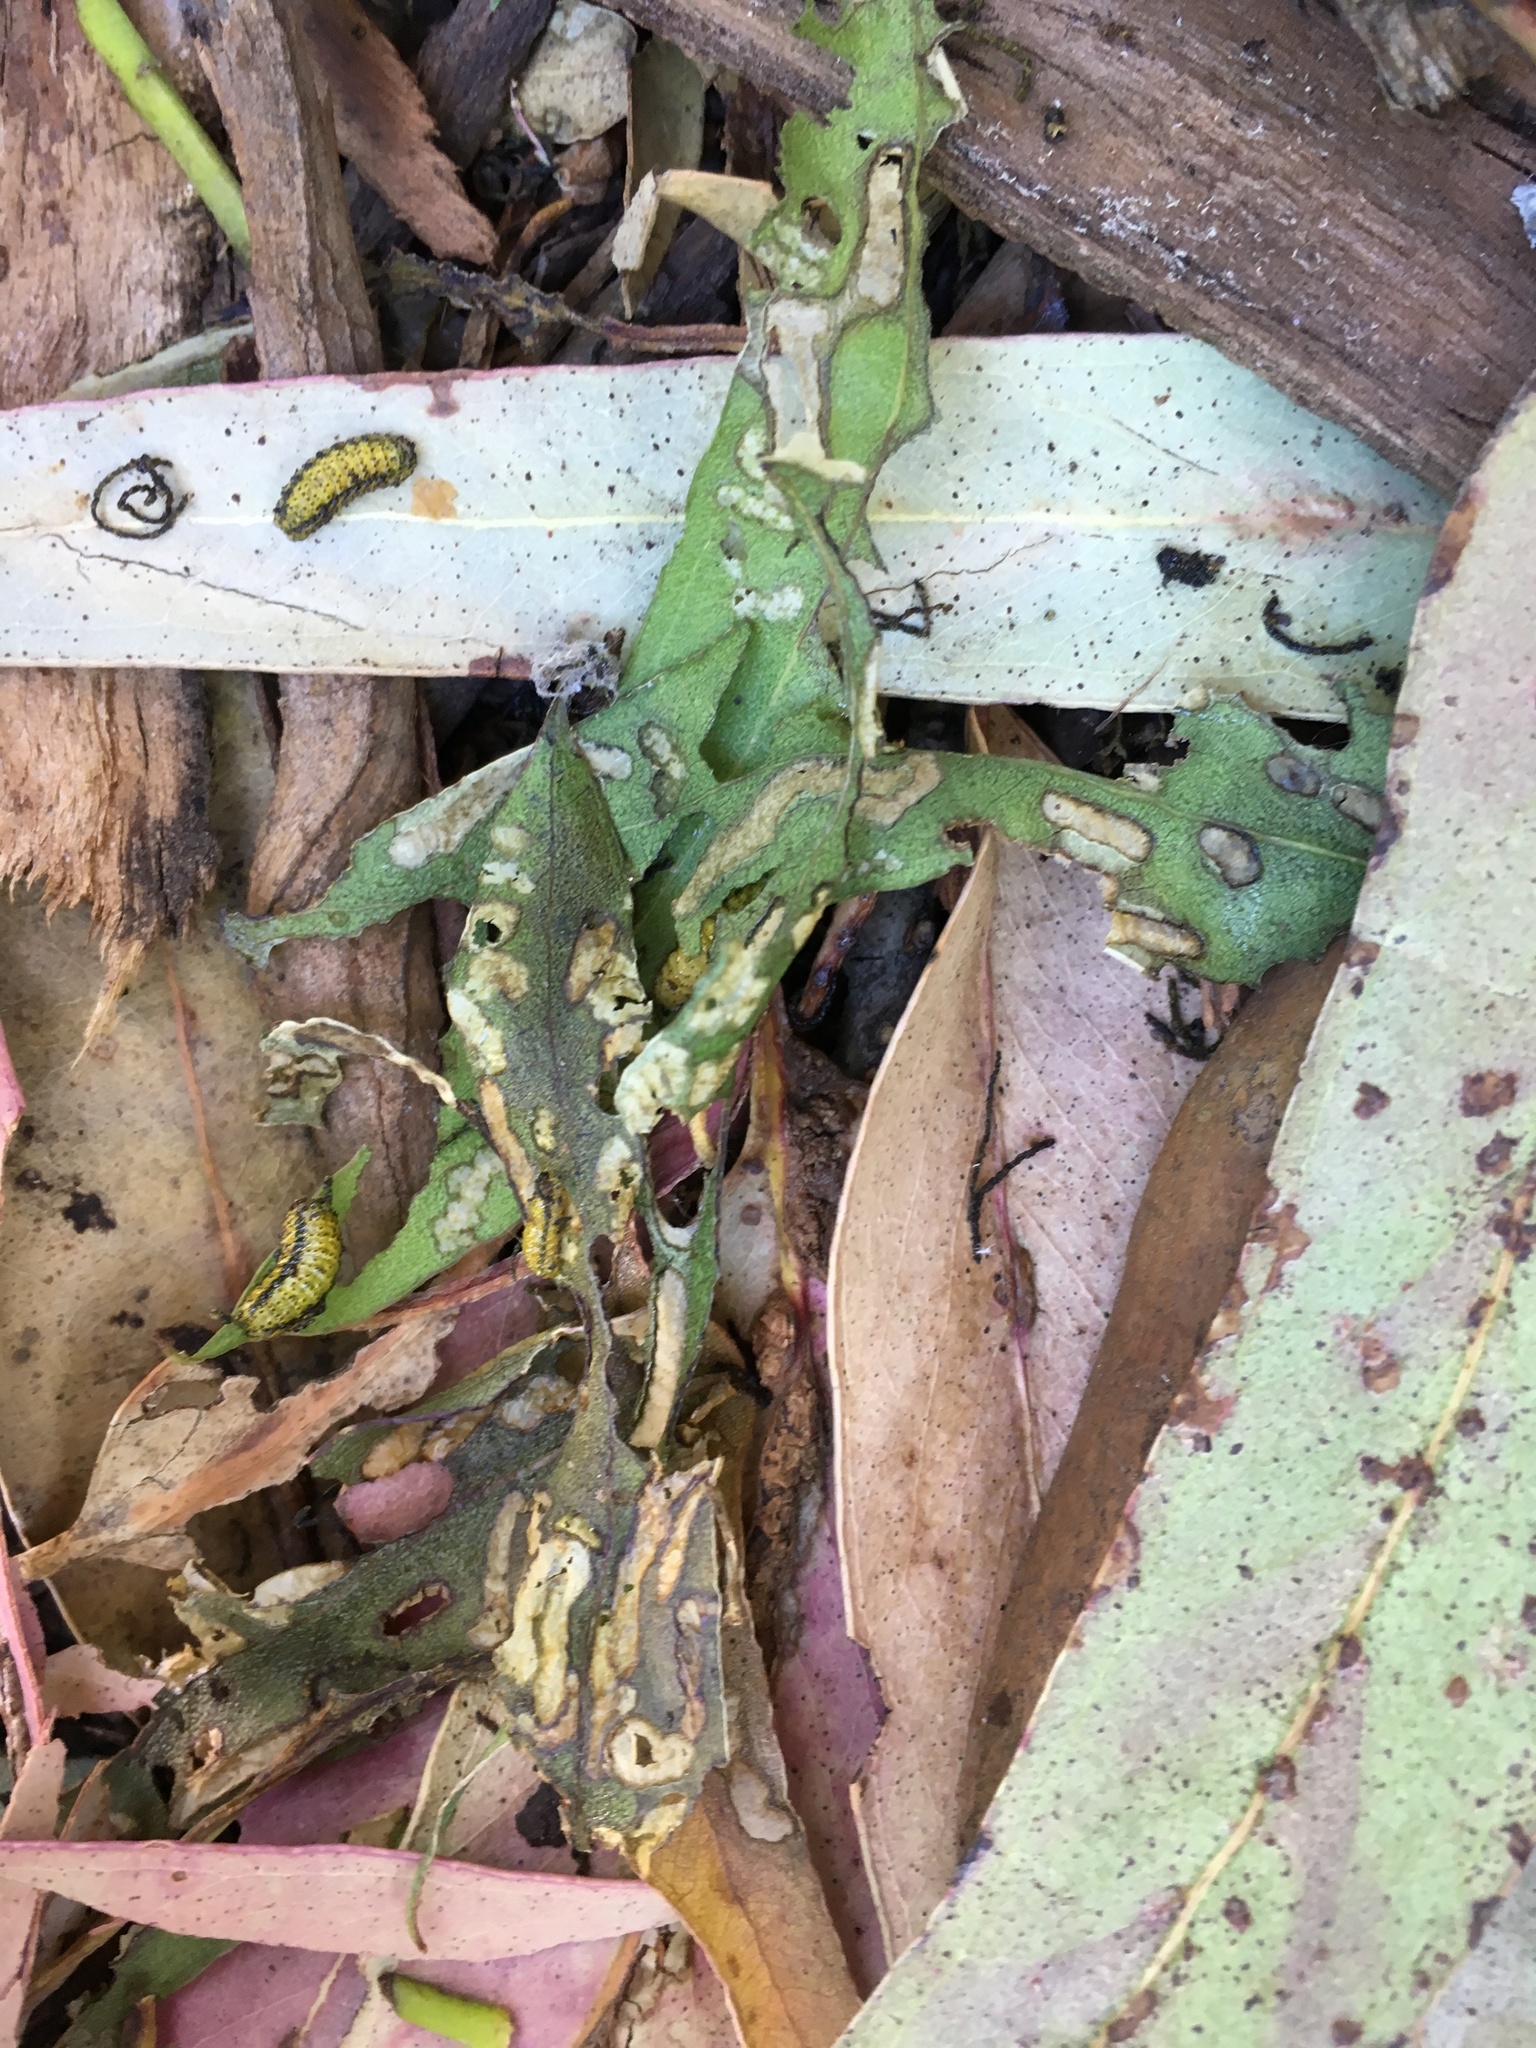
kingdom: Animalia
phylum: Arthropoda
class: Insecta
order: Coleoptera
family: Curculionidae
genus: Gonipterus
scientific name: Gonipterus platensis
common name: Eucalyptus snout beetle
